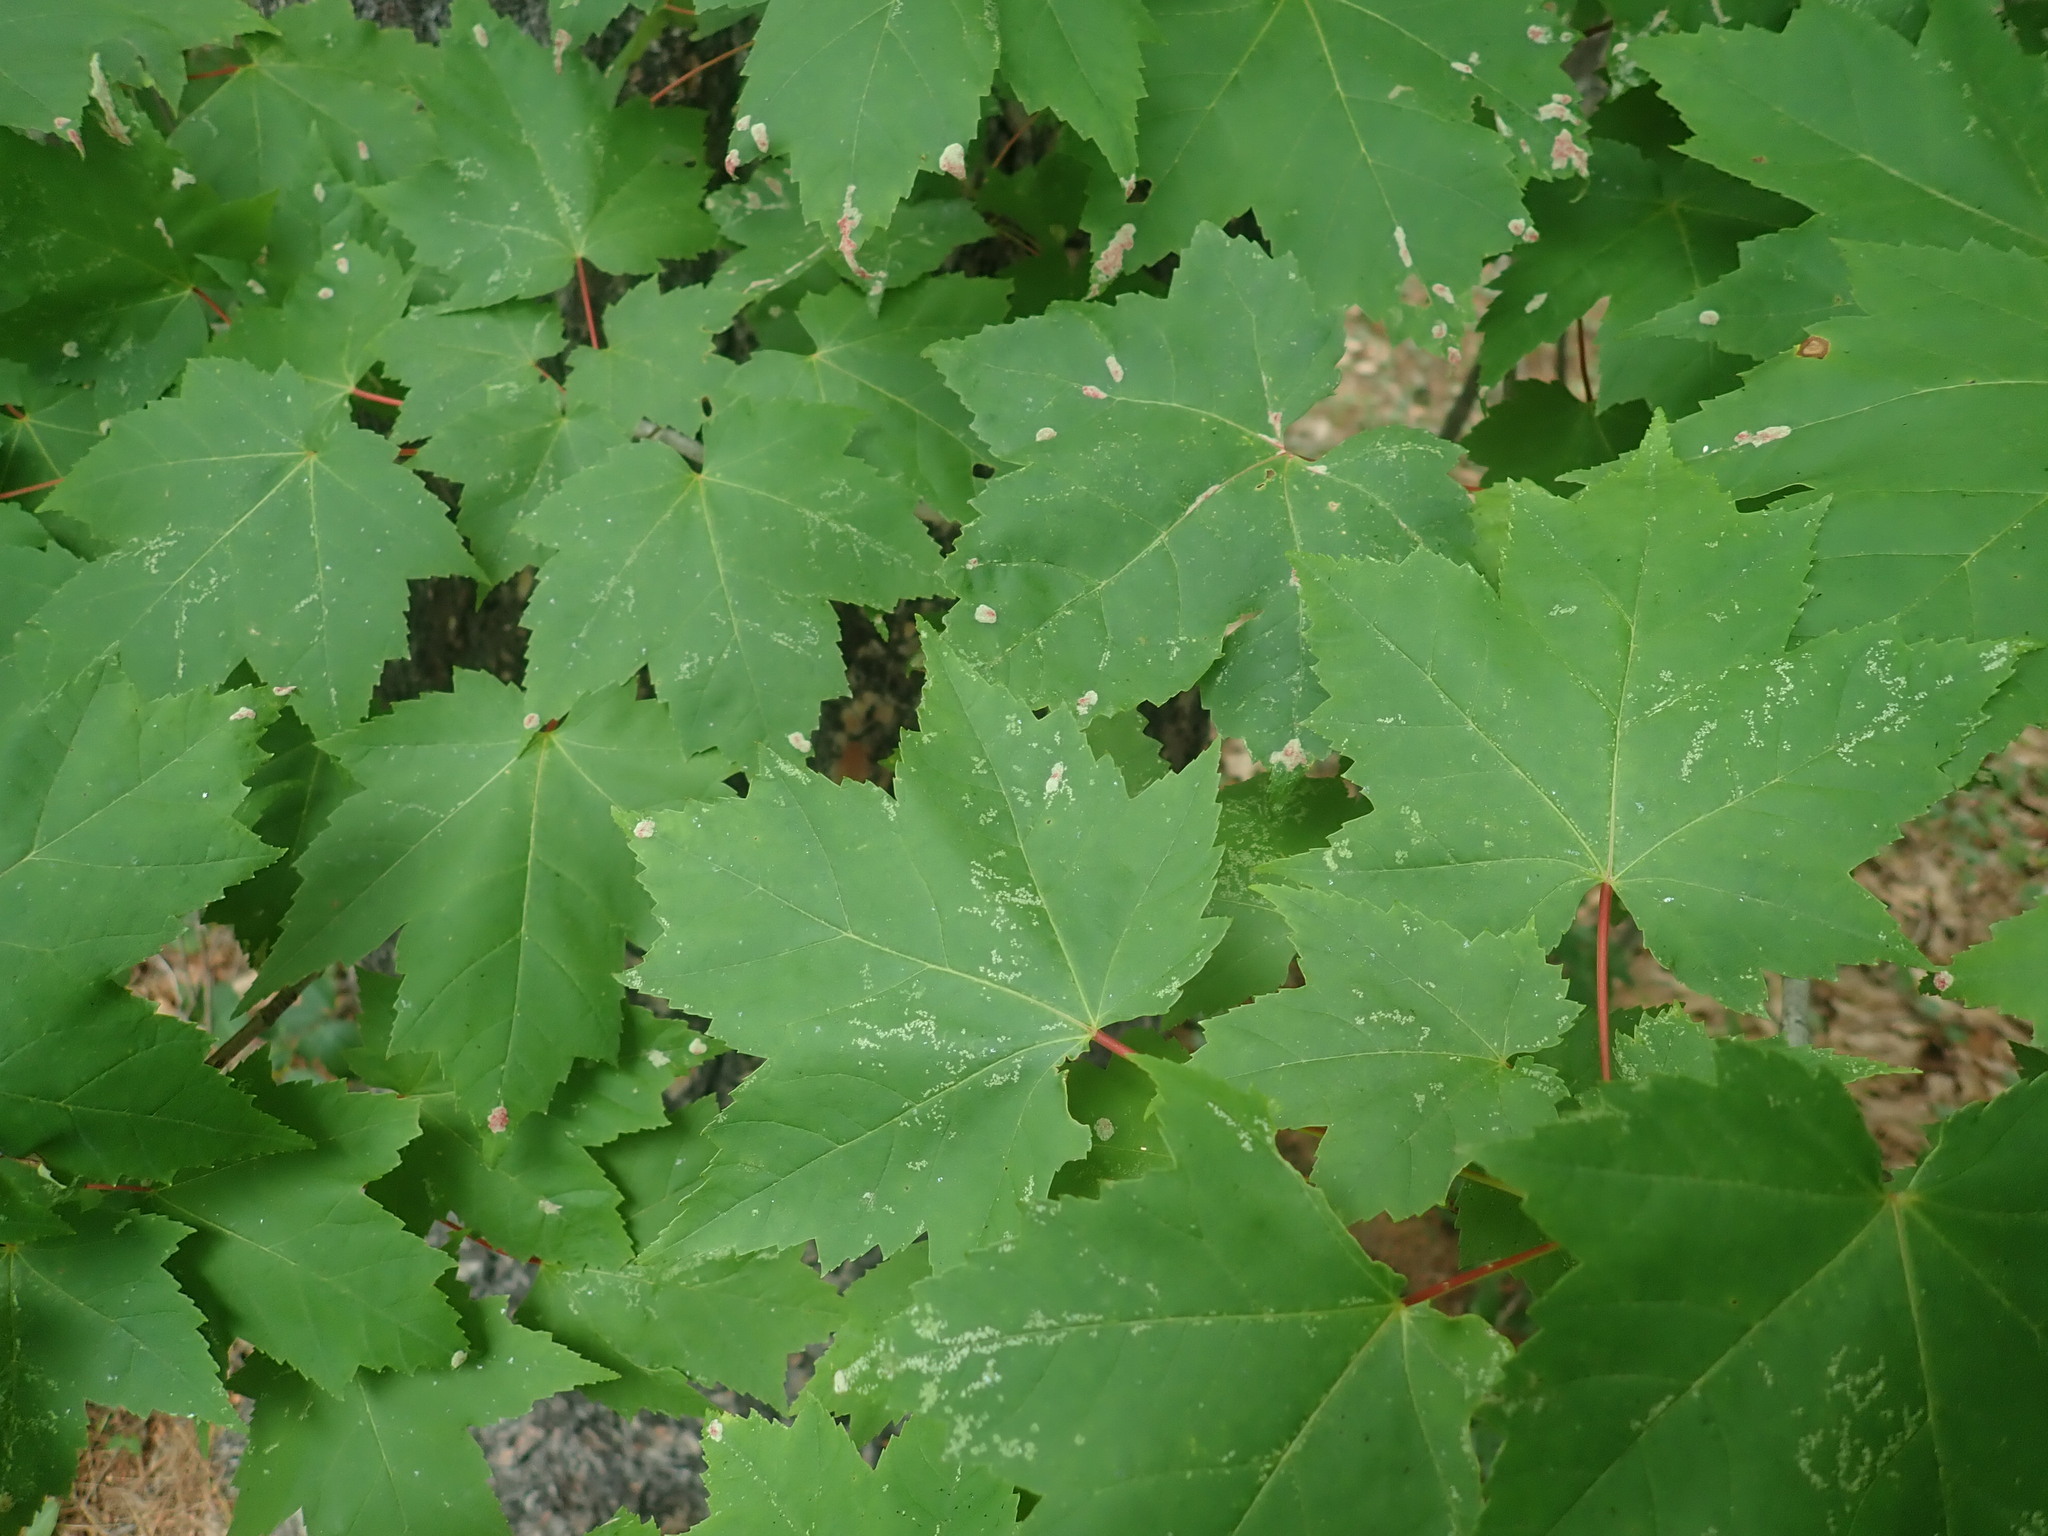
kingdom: Plantae
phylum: Tracheophyta
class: Magnoliopsida
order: Sapindales
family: Sapindaceae
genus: Acer
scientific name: Acer rubrum
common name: Red maple
